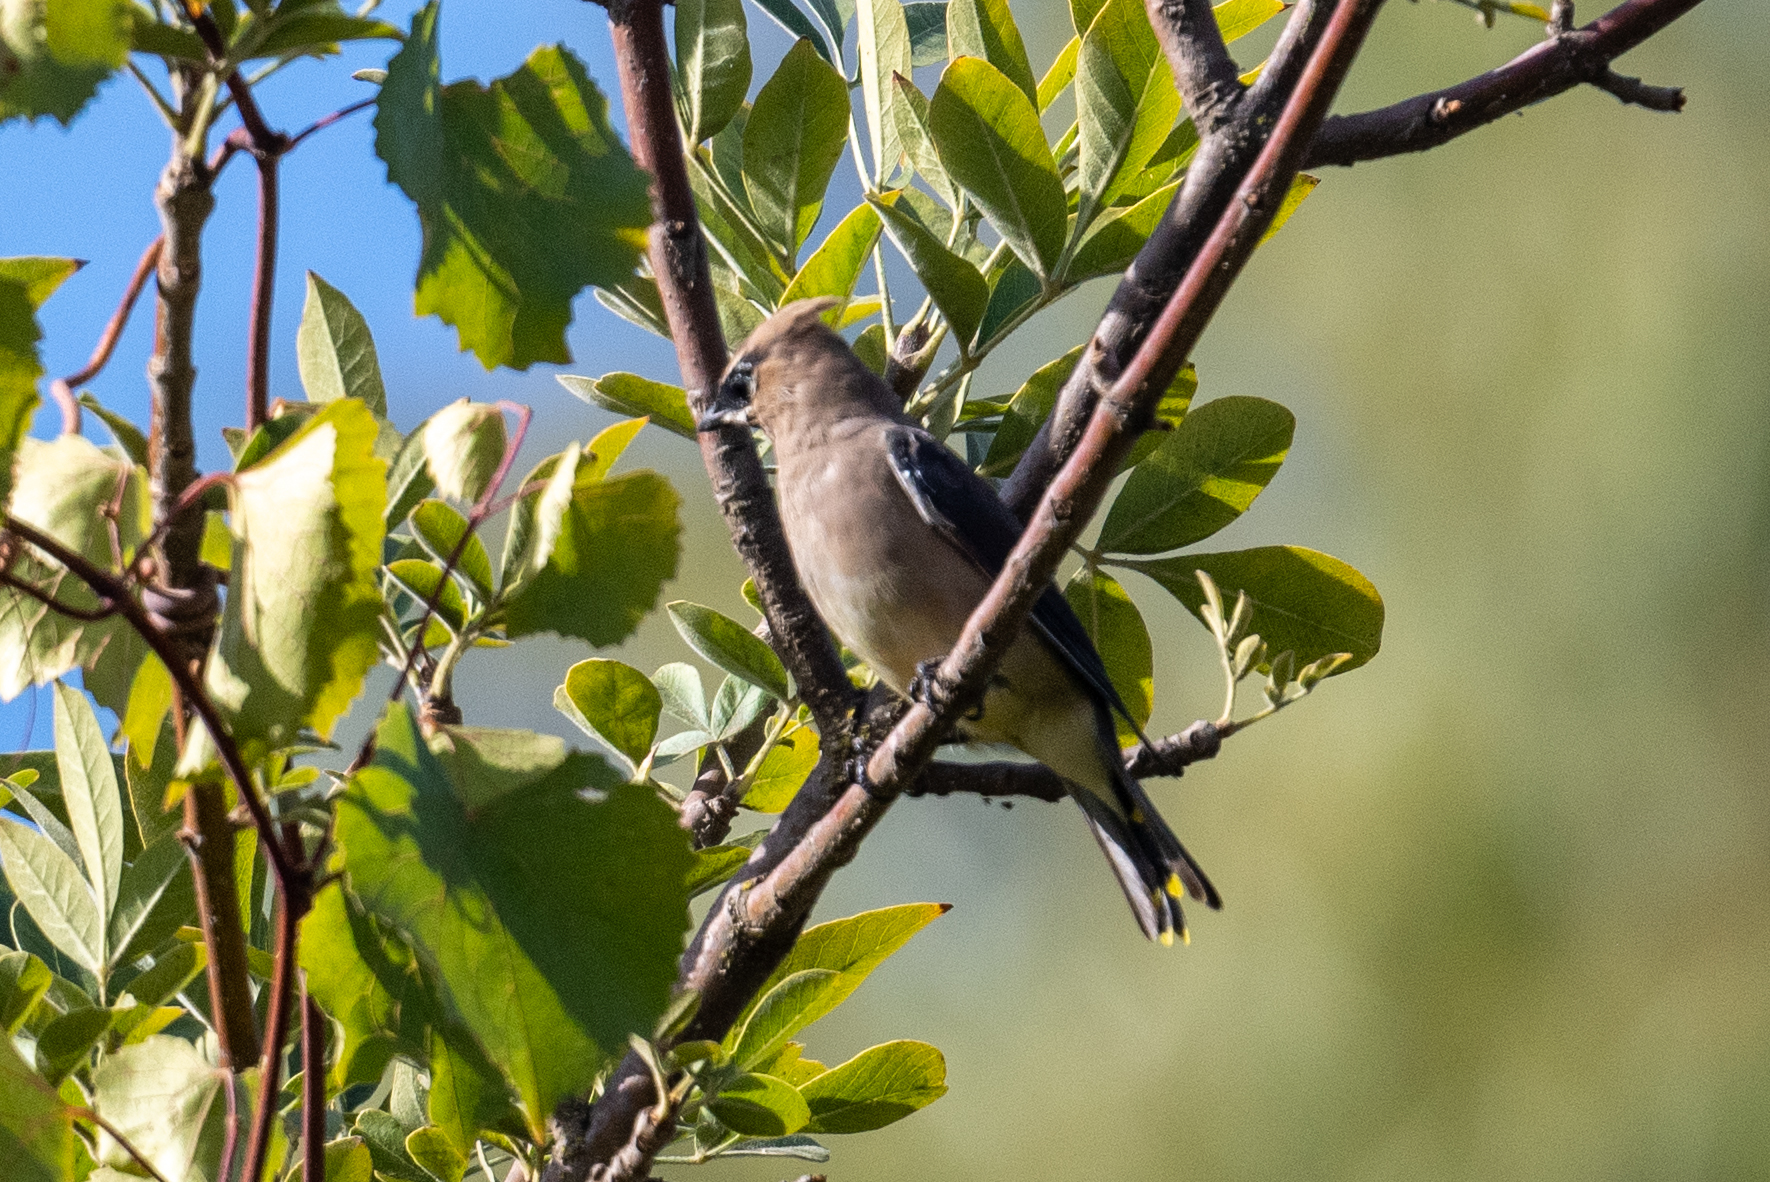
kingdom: Animalia
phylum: Chordata
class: Aves
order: Passeriformes
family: Bombycillidae
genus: Bombycilla
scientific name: Bombycilla cedrorum
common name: Cedar waxwing
